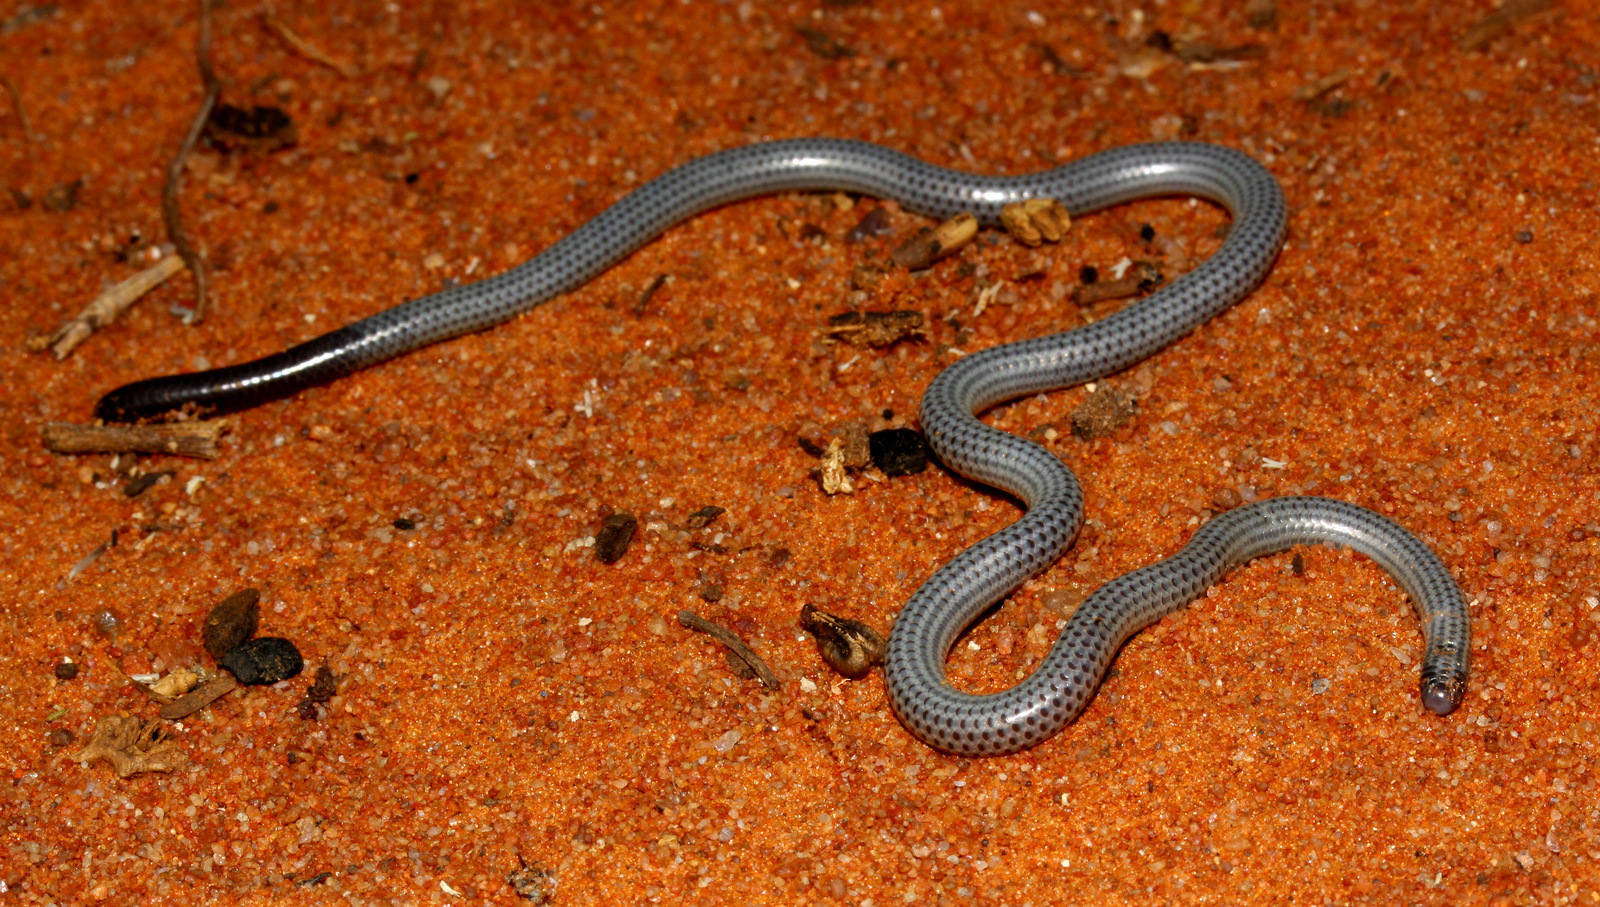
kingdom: Animalia
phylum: Chordata
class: Squamata
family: Leptotyphlopidae
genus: Leptotyphlops
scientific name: Leptotyphlops scutifrons
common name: Peter's thread snake
